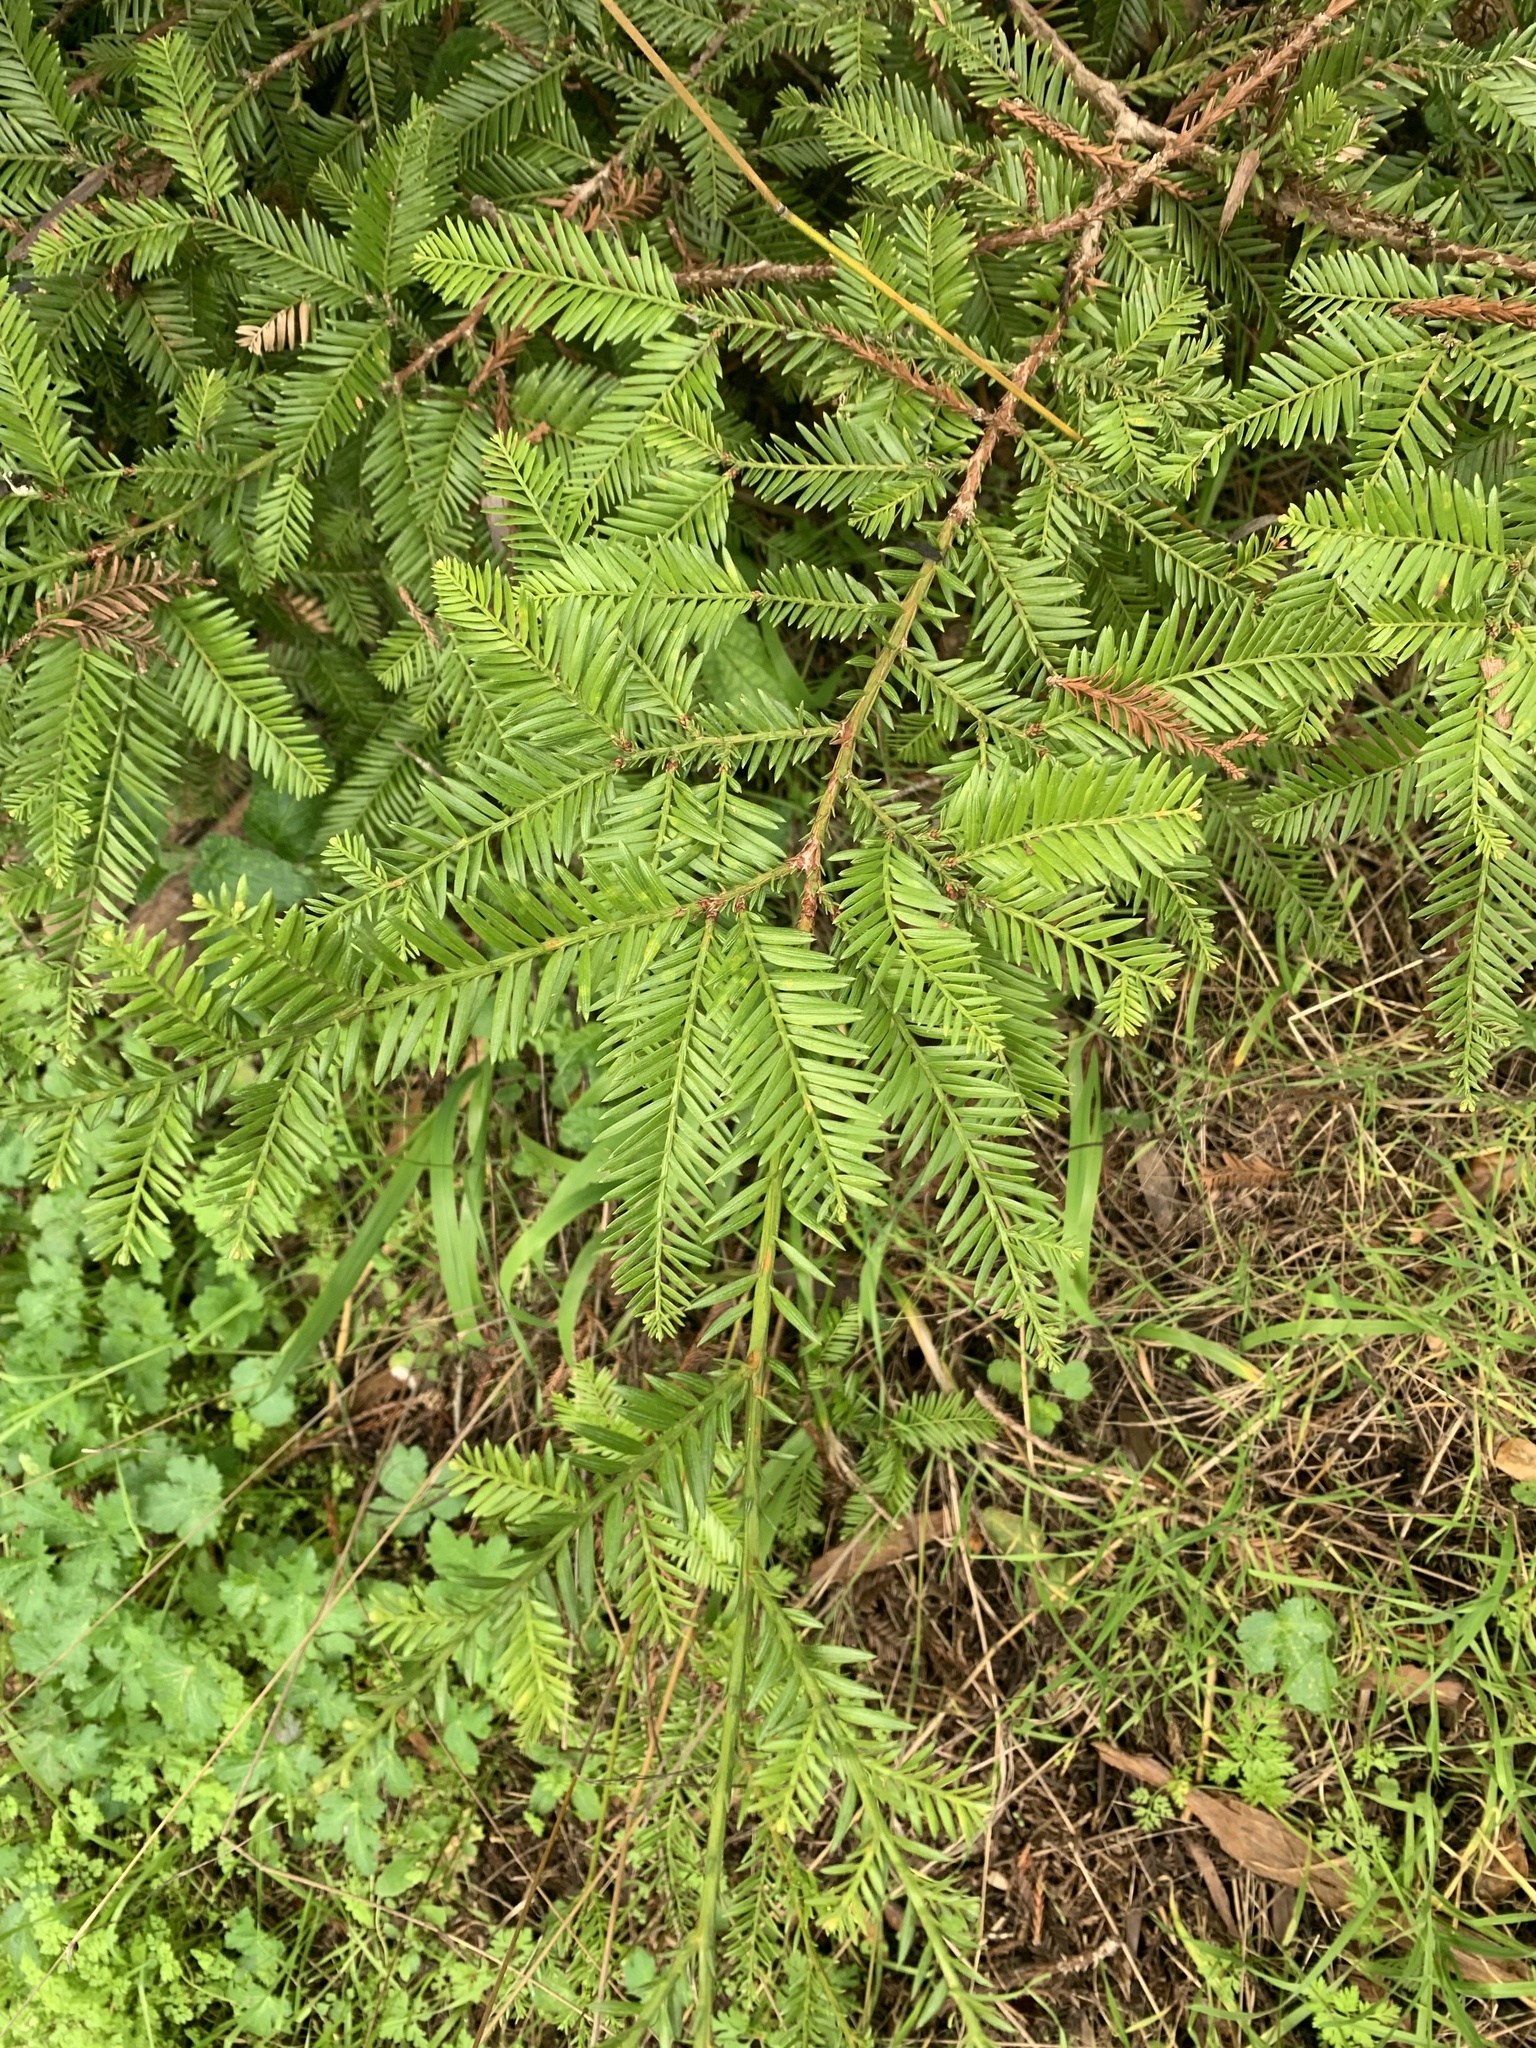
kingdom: Plantae
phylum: Tracheophyta
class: Pinopsida
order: Pinales
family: Cupressaceae
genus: Sequoia
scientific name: Sequoia sempervirens
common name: Coast redwood
